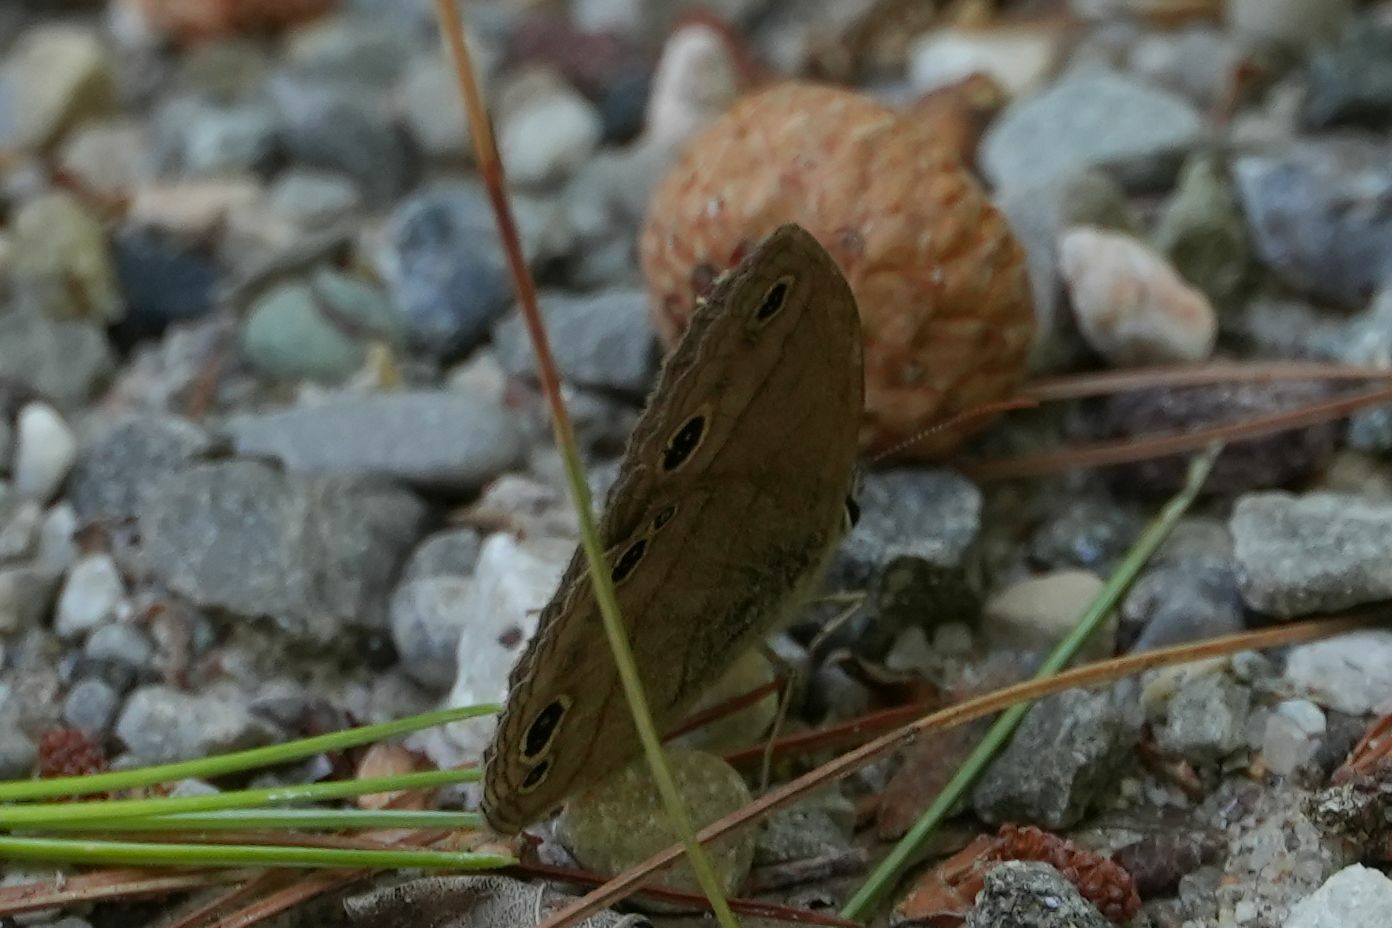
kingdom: Animalia
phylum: Arthropoda
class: Insecta
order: Lepidoptera
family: Nymphalidae
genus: Euptychia
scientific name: Euptychia cymela
